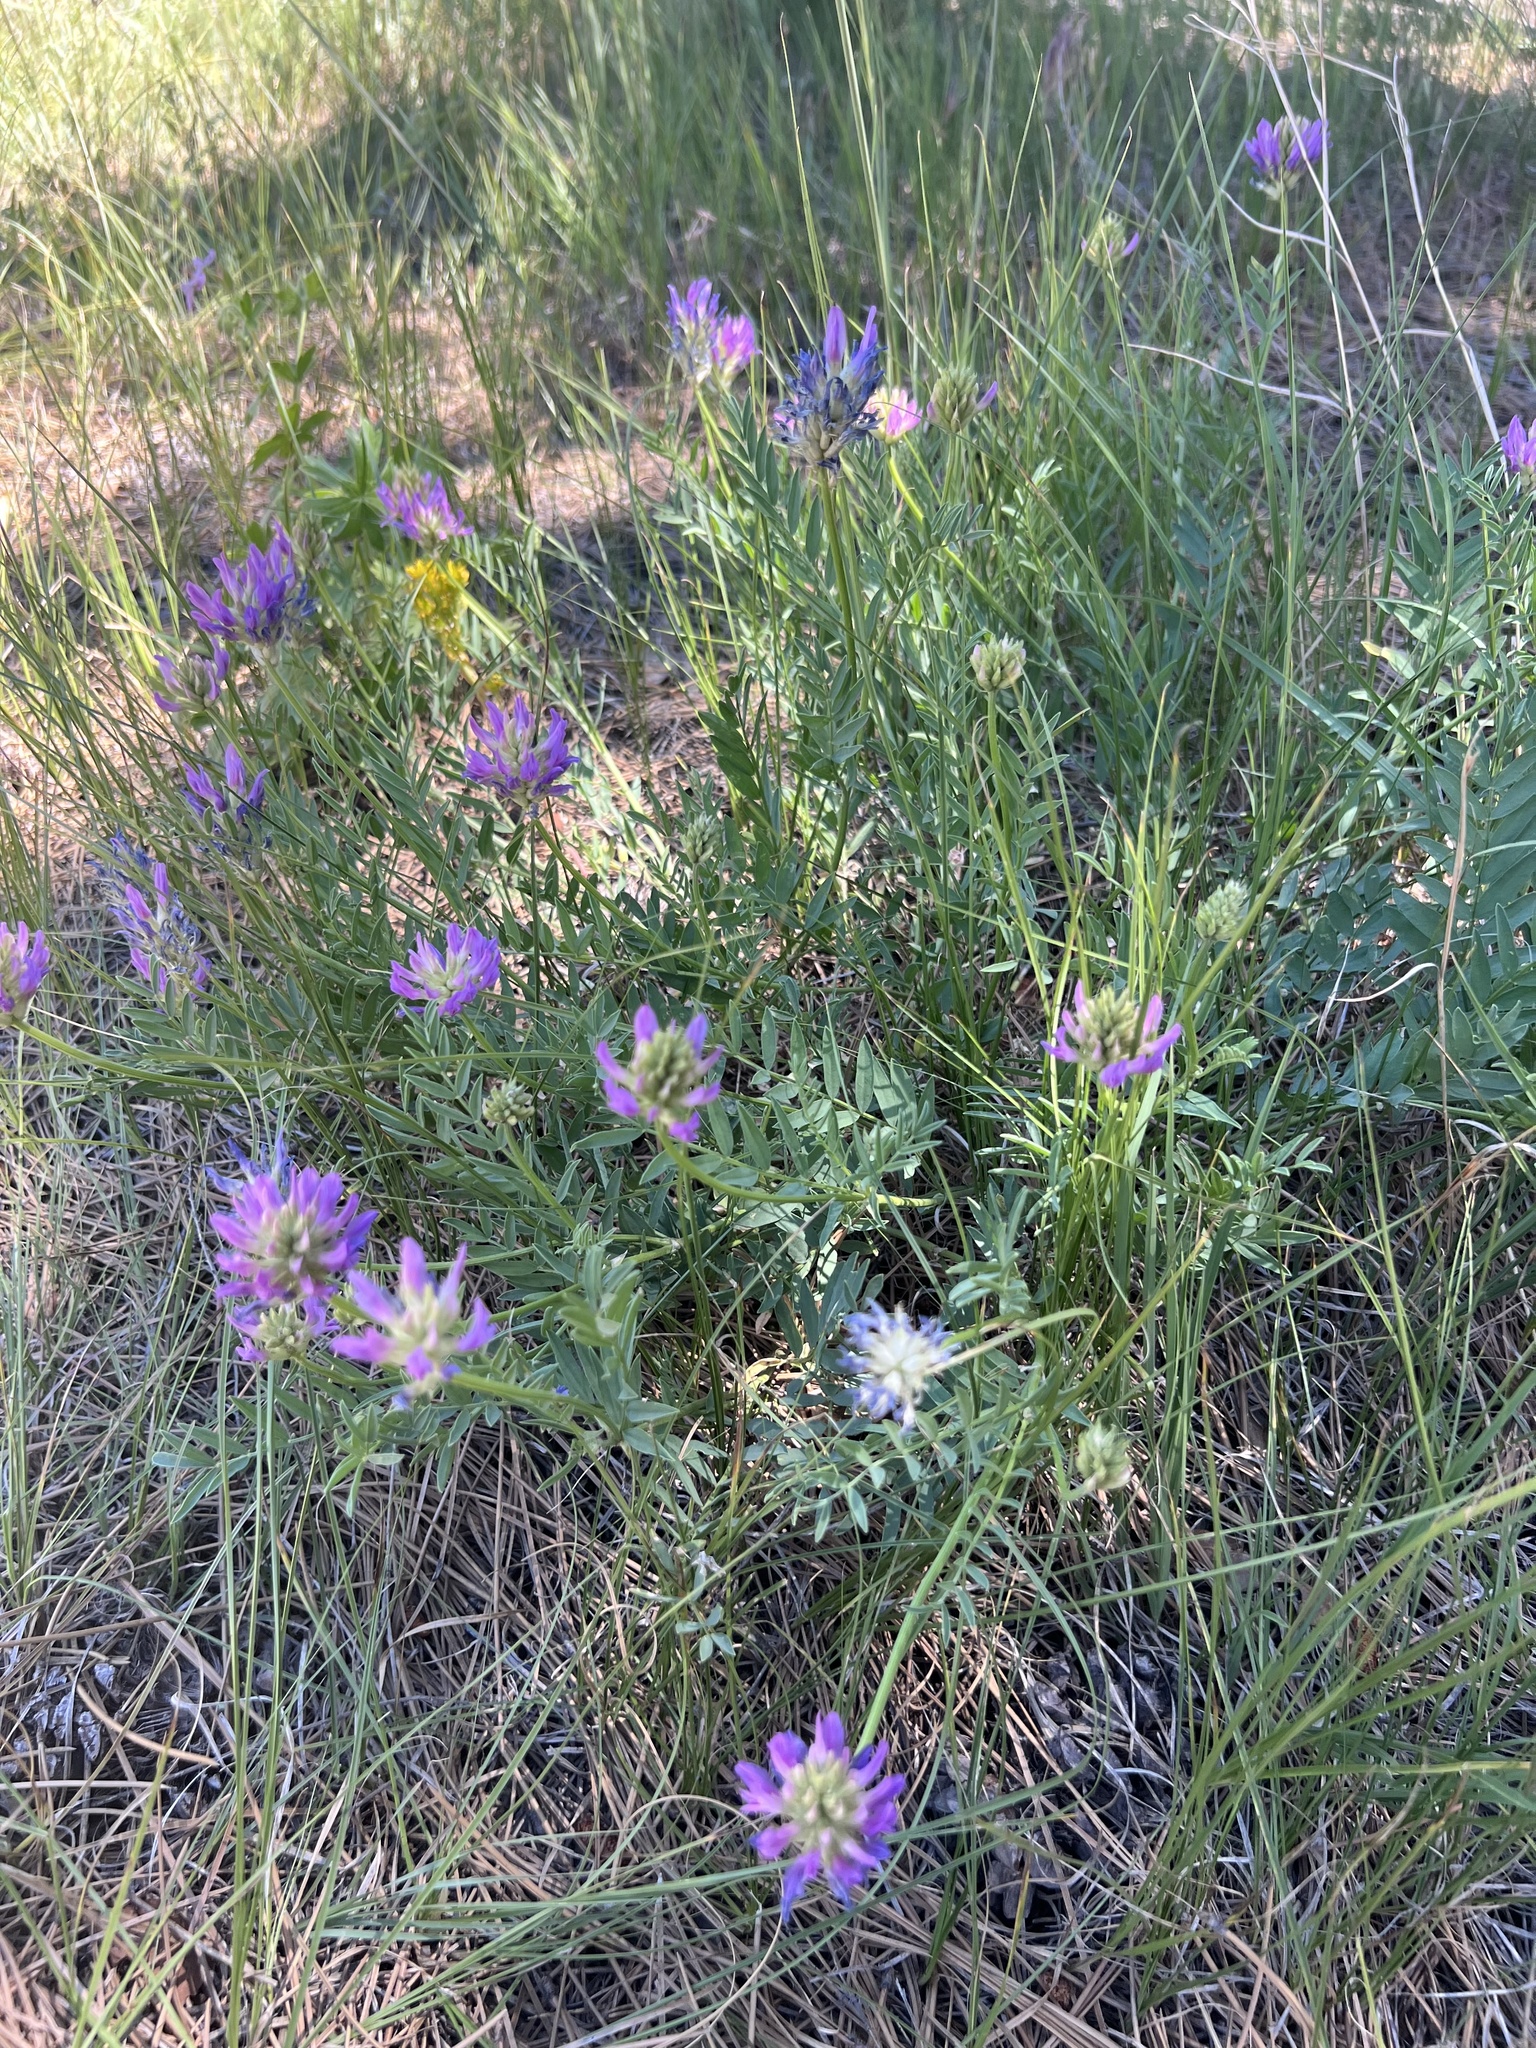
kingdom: Plantae
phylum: Tracheophyta
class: Magnoliopsida
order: Fabales
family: Fabaceae
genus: Astragalus
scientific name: Astragalus laxmannii
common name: Laxmann's milk-vetch
